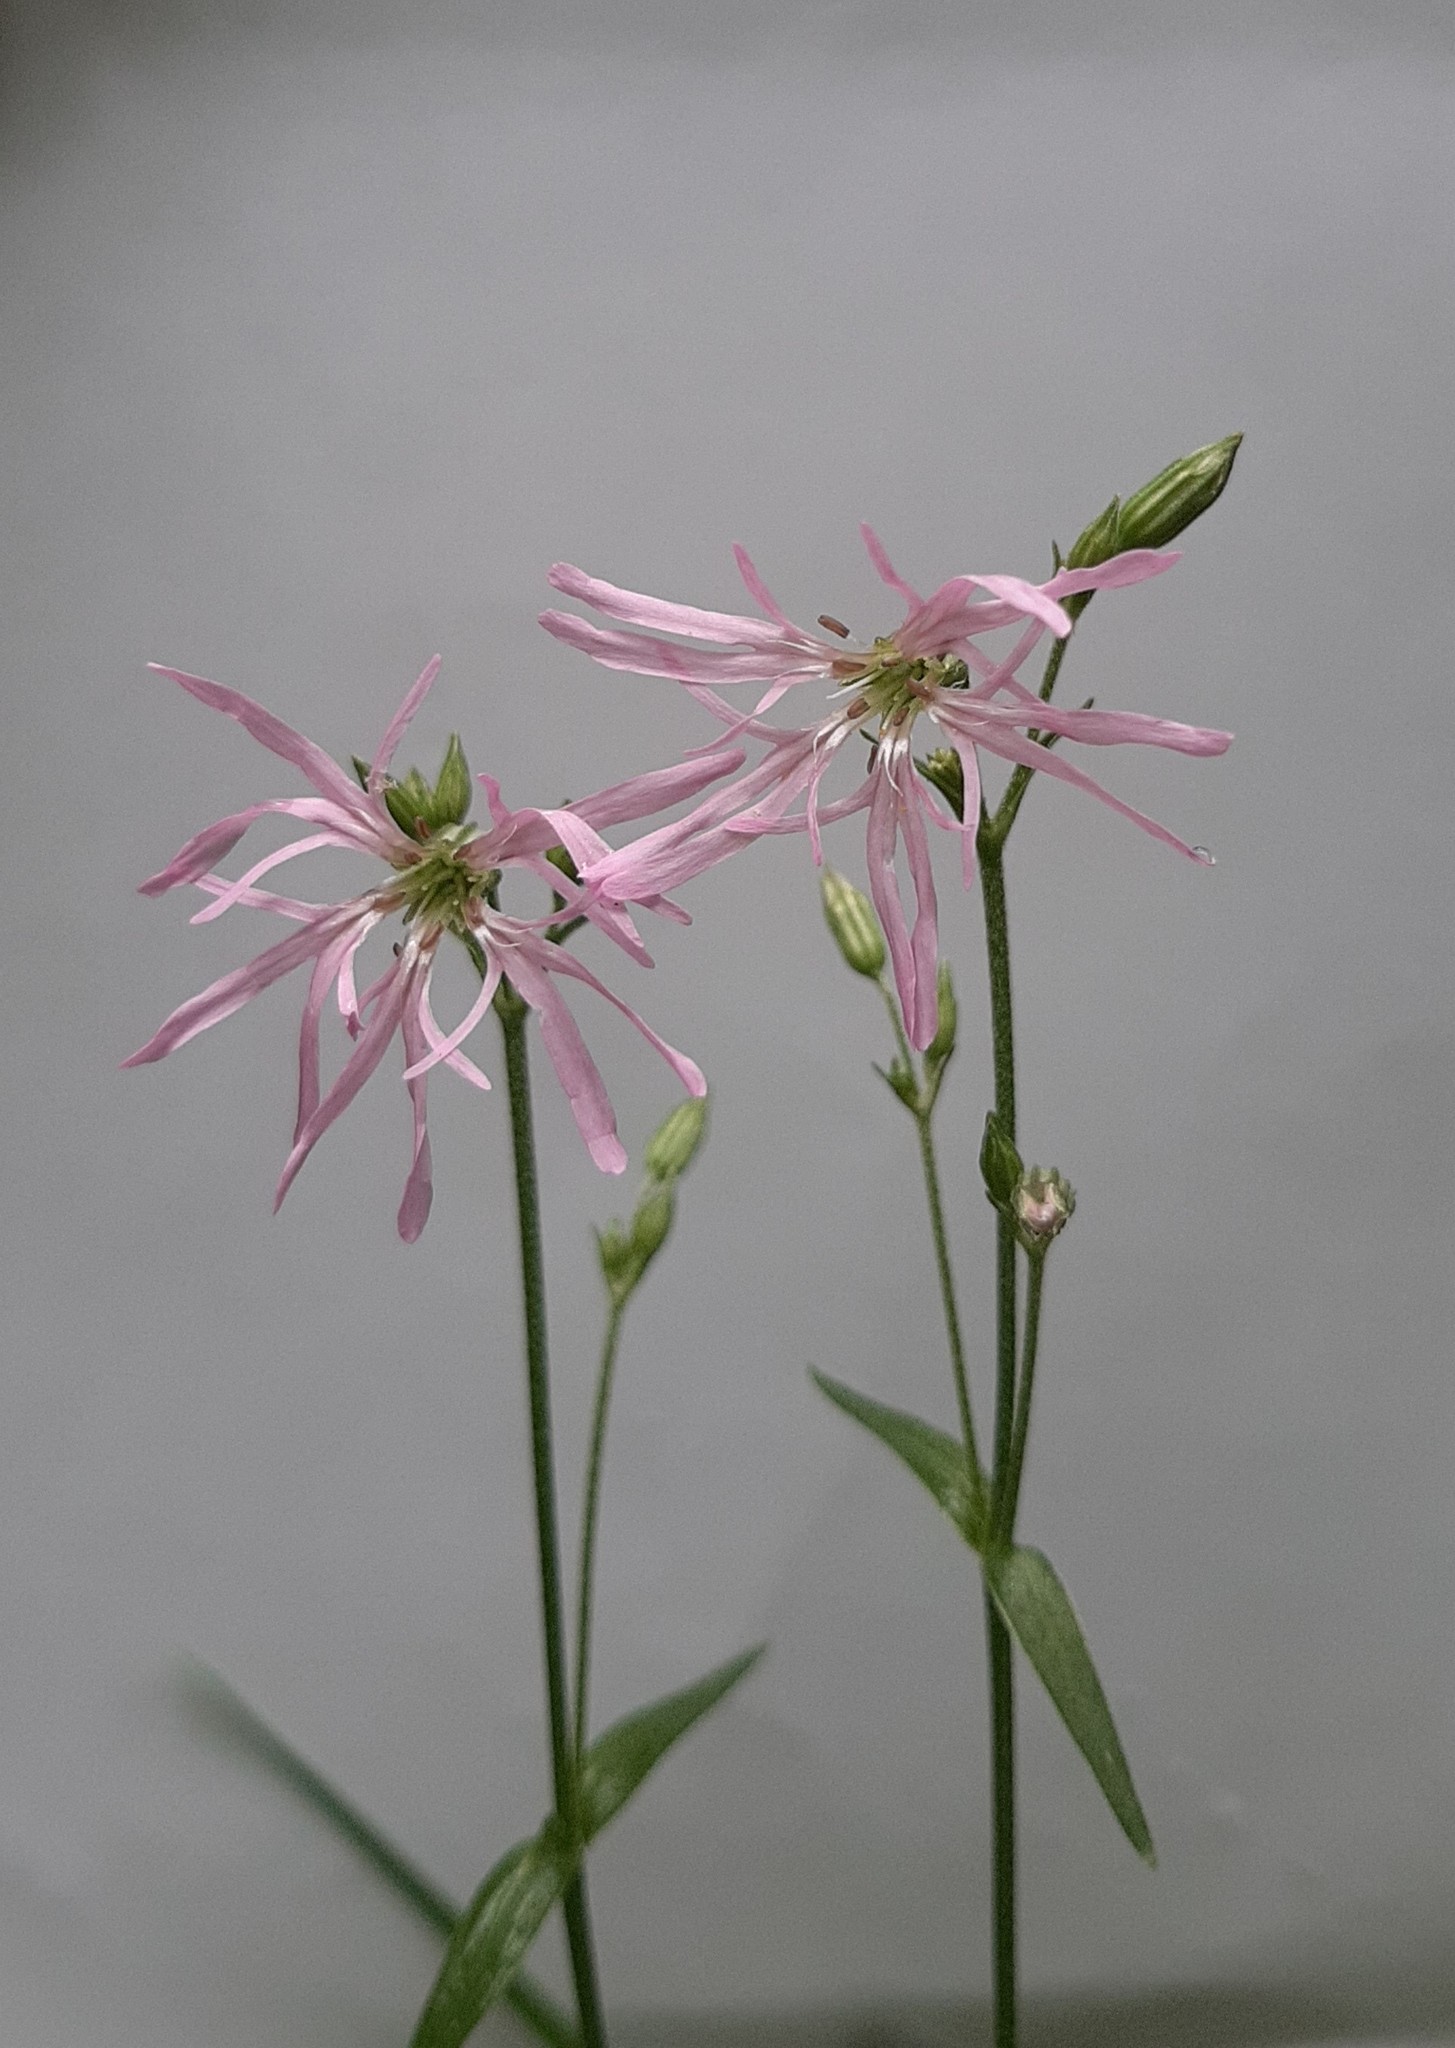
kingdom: Plantae
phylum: Tracheophyta
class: Magnoliopsida
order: Caryophyllales
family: Caryophyllaceae
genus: Silene
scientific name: Silene flos-cuculi
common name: Ragged-robin
